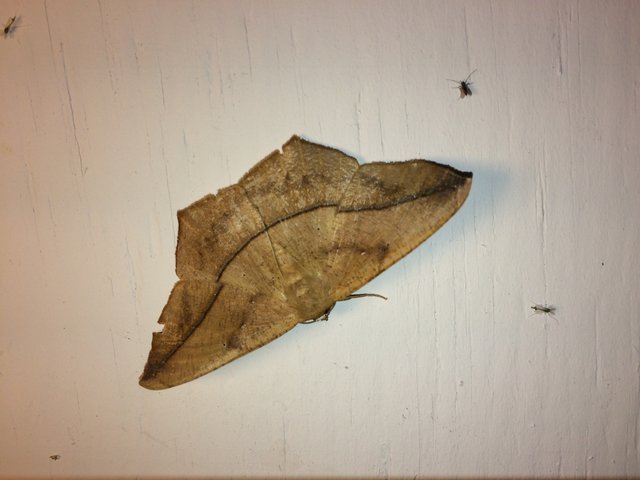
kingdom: Animalia
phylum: Arthropoda
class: Insecta
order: Lepidoptera
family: Geometridae
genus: Prochoerodes
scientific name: Prochoerodes lineola
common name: Large maple spanworm
